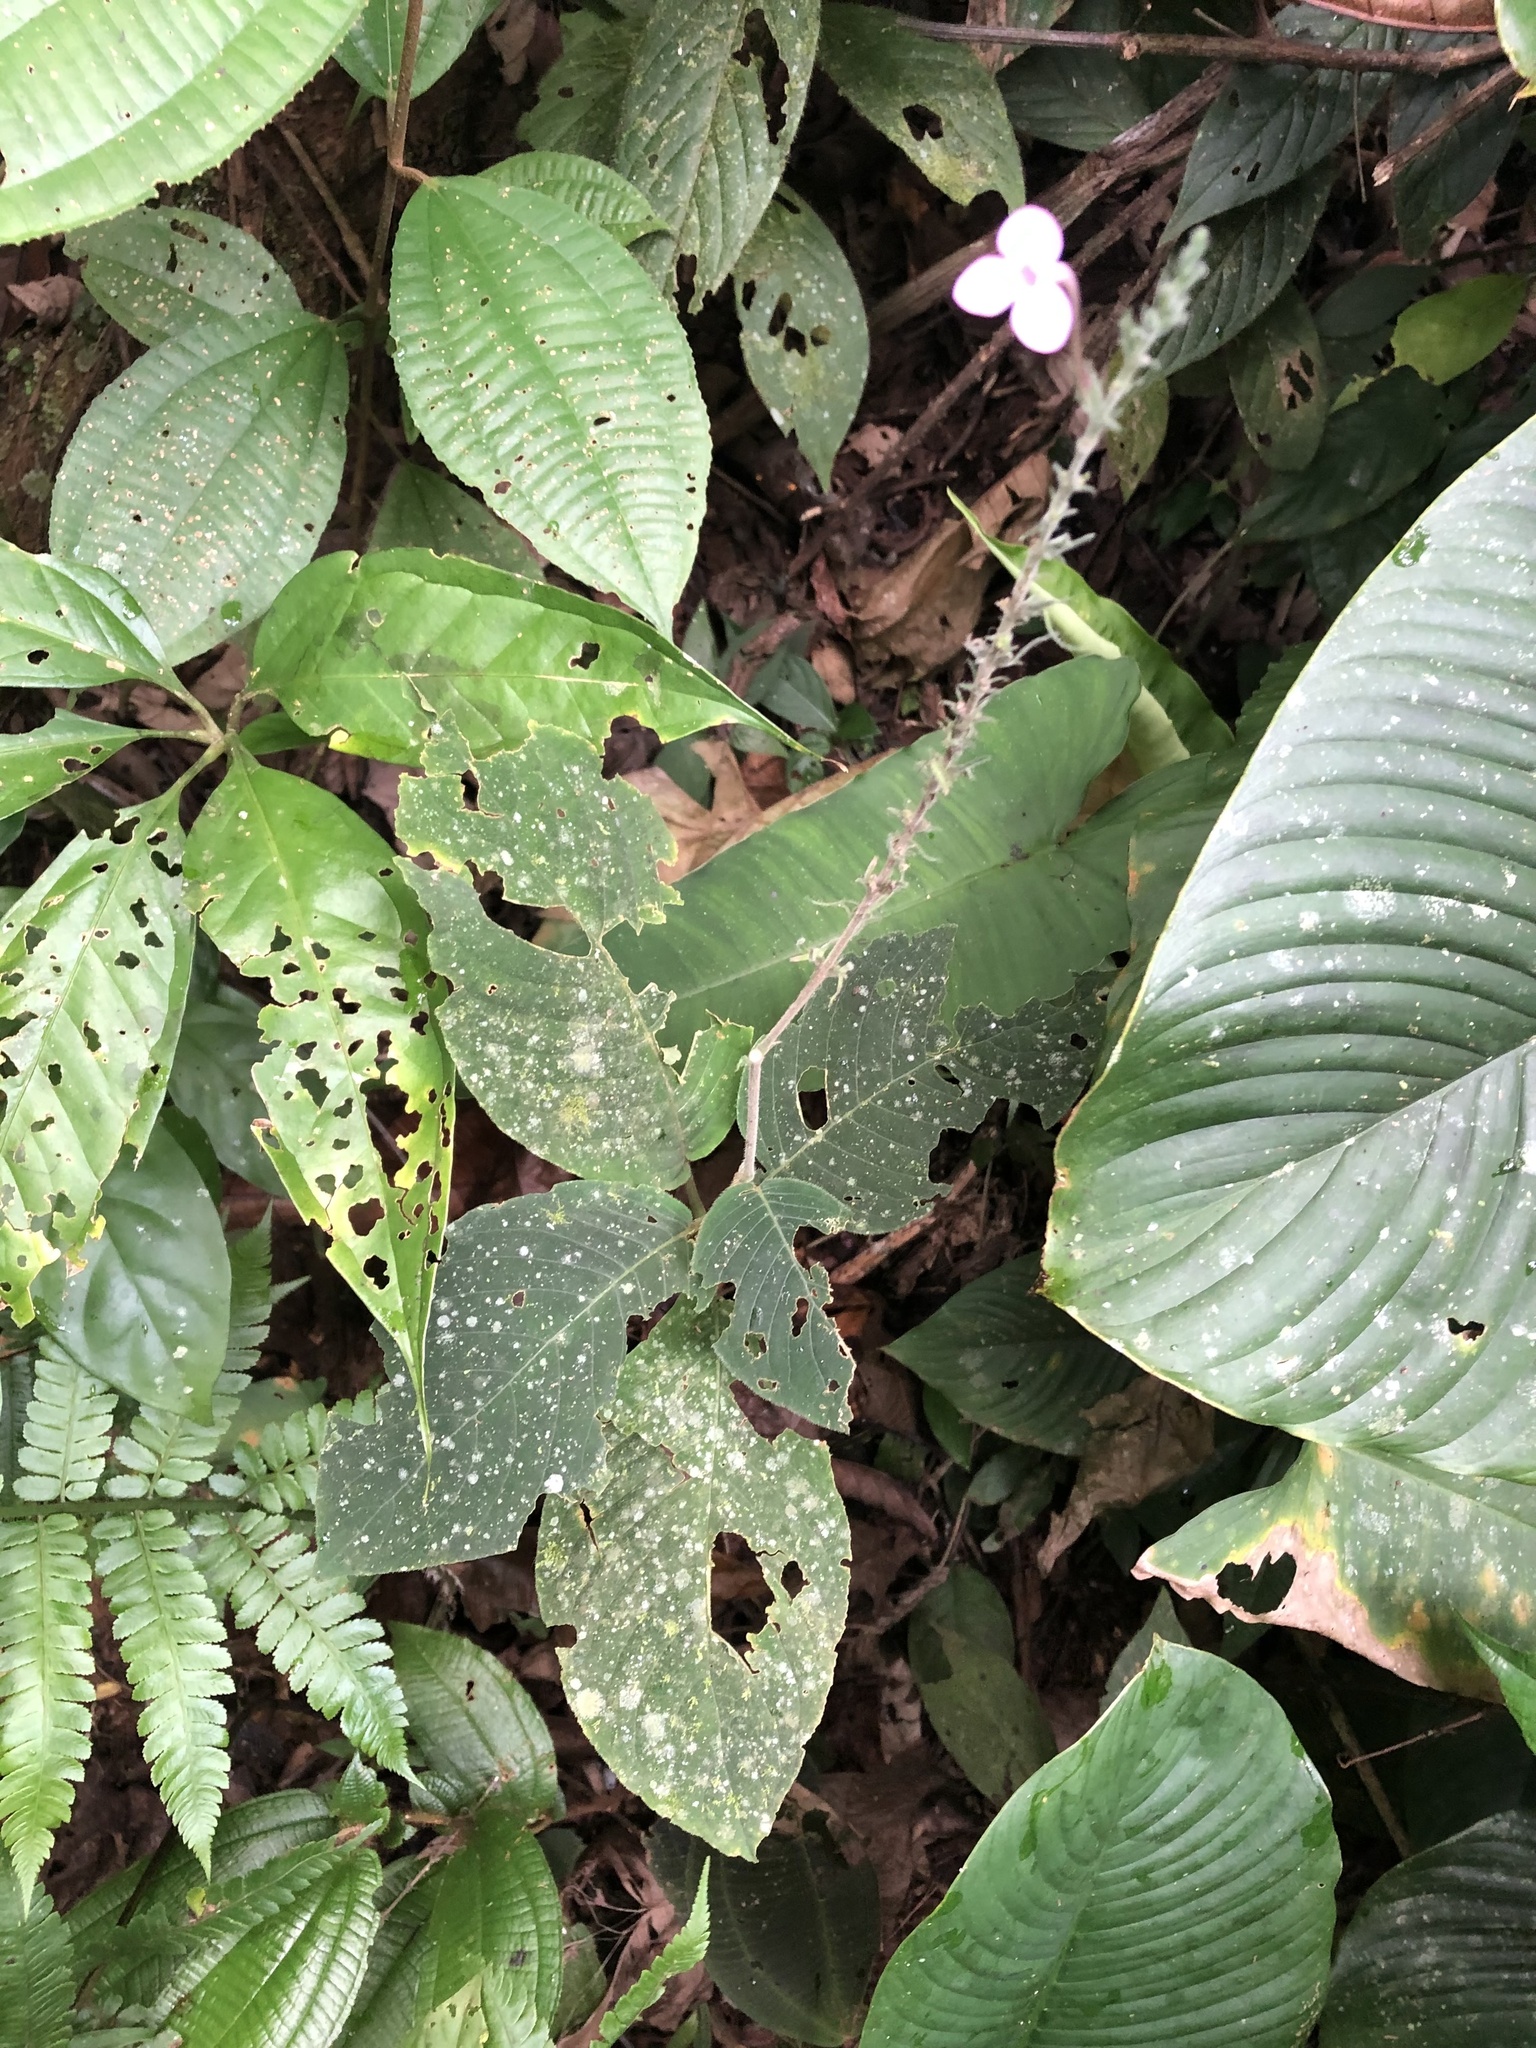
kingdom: Plantae
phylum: Tracheophyta
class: Magnoliopsida
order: Lamiales
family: Acanthaceae
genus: Pachystachys
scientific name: Pachystachys dubiosa
